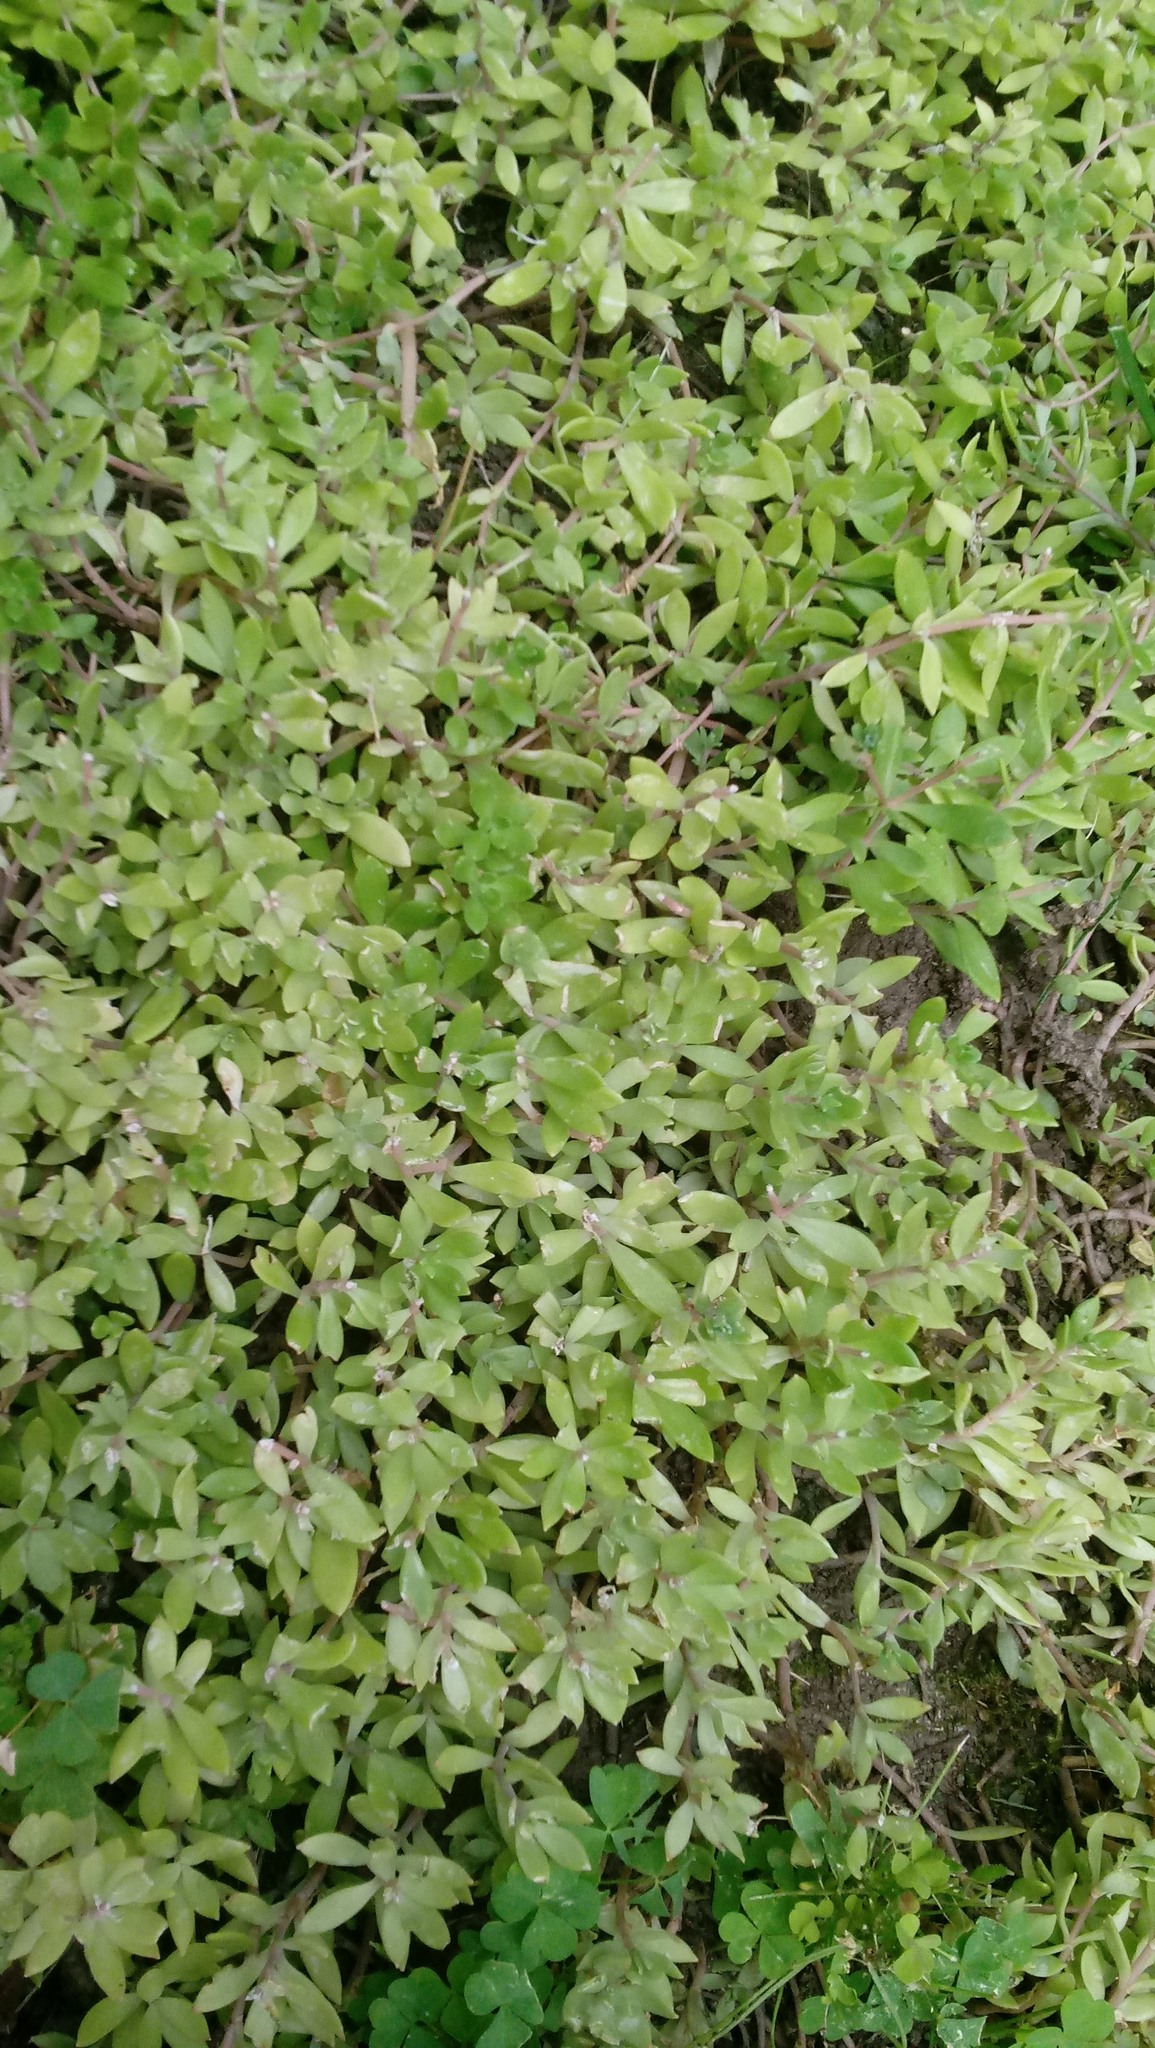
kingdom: Plantae
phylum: Tracheophyta
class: Magnoliopsida
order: Saxifragales
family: Crassulaceae
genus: Sedum
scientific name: Sedum sarmentosum
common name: Stringy stonecrop
